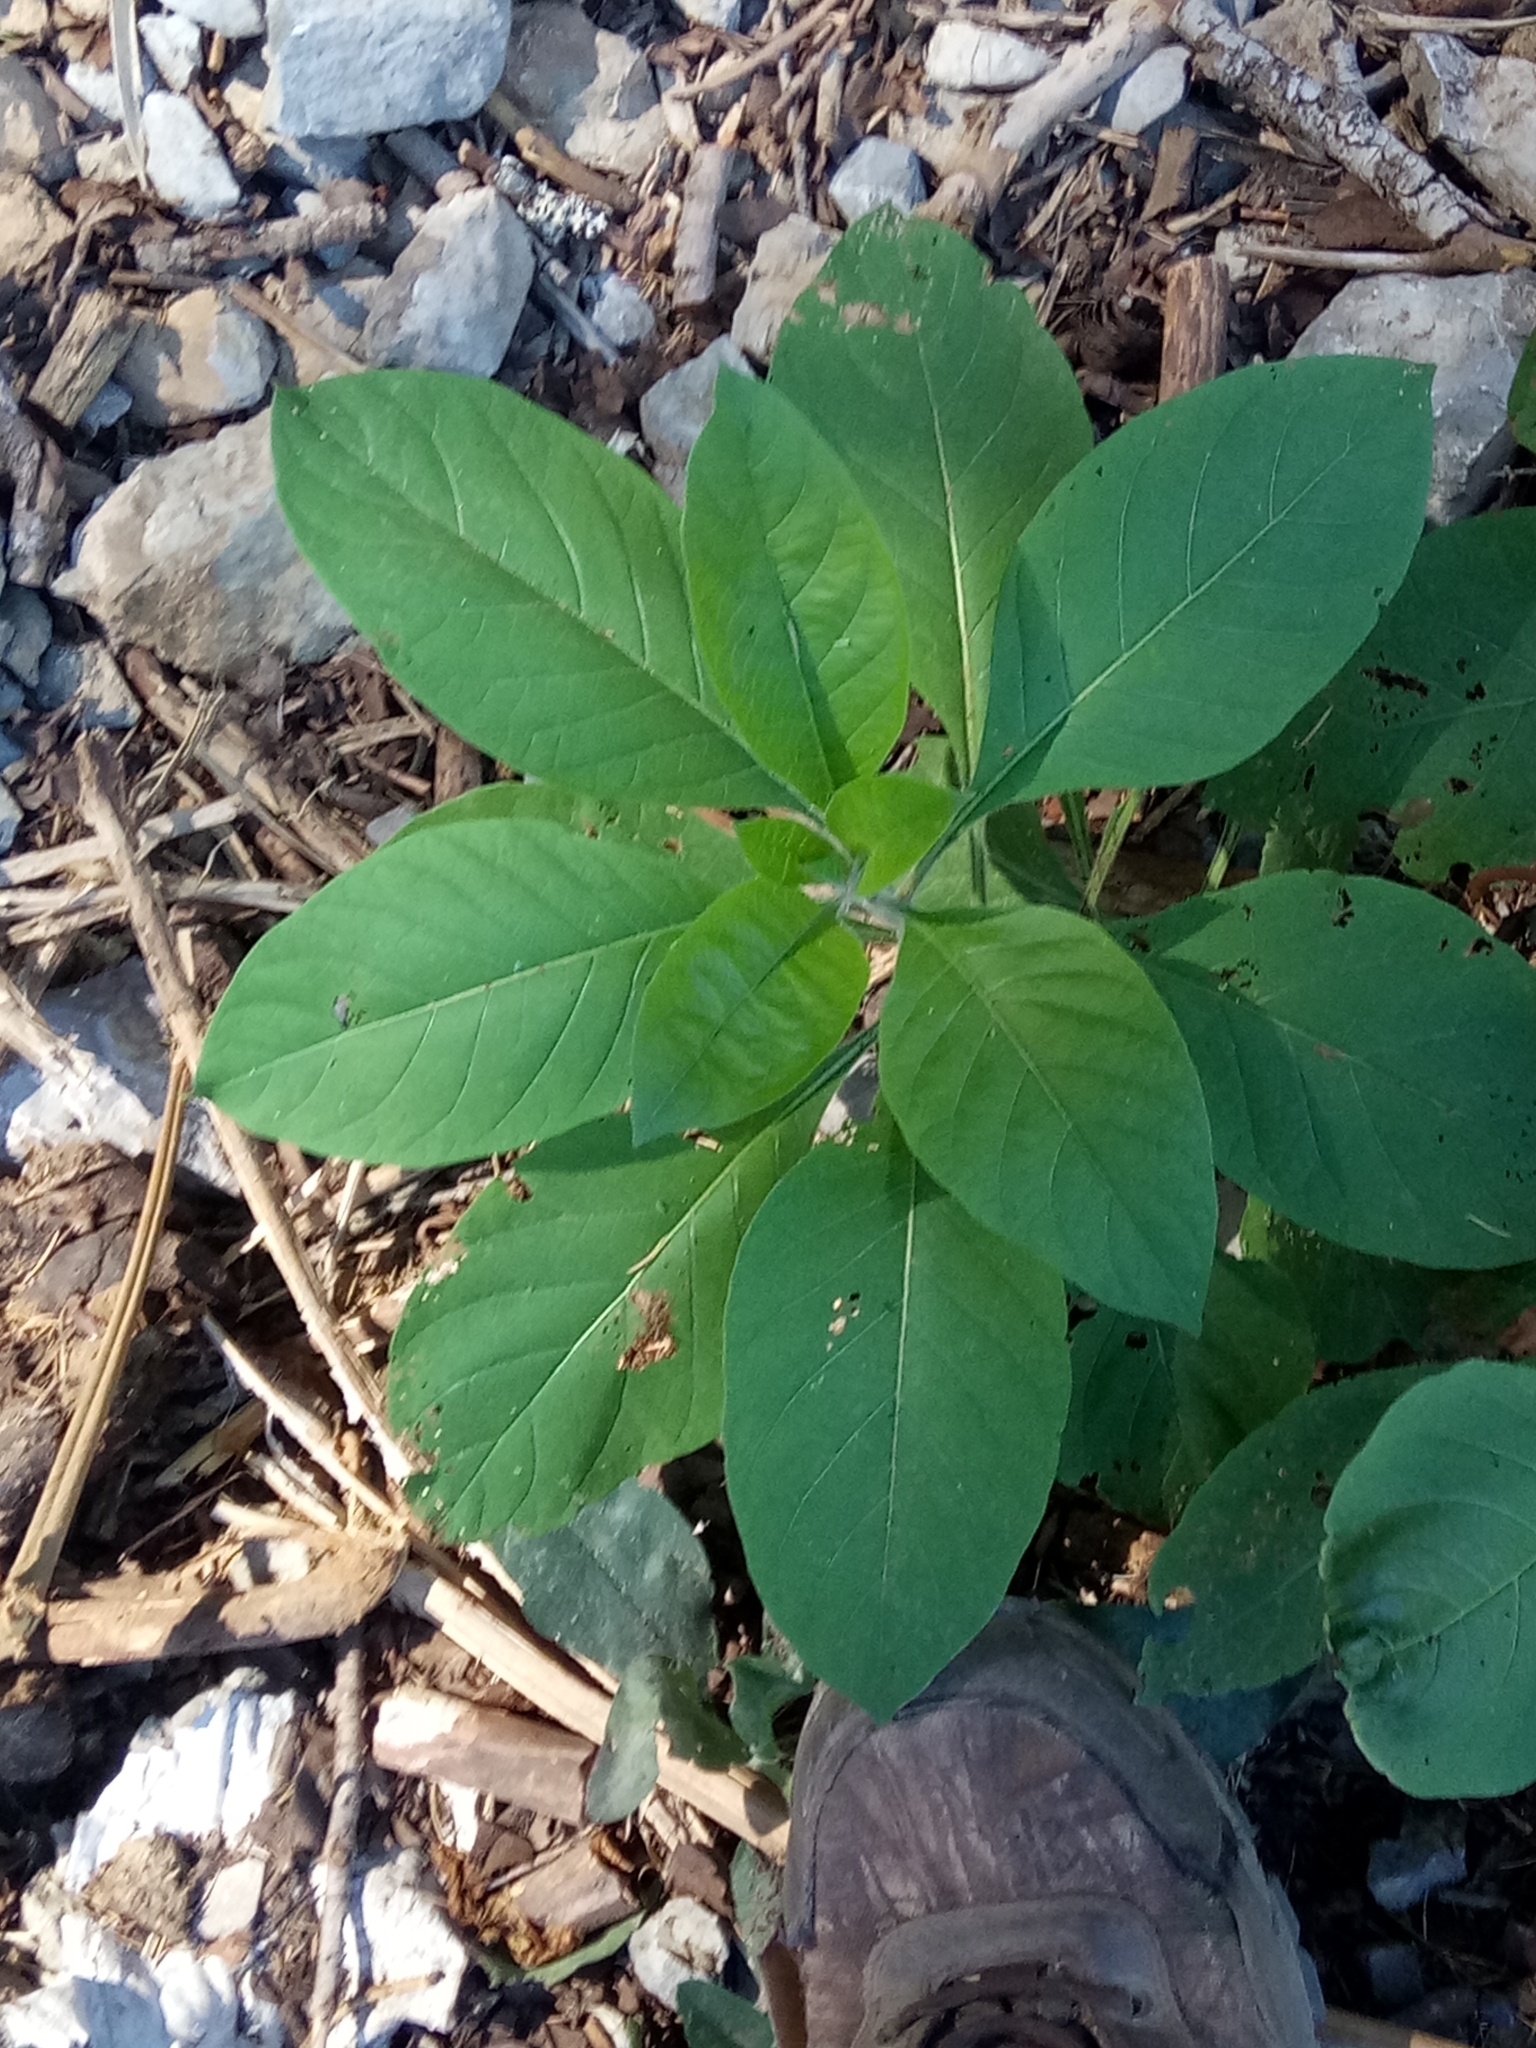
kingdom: Plantae
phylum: Tracheophyta
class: Magnoliopsida
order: Solanales
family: Solanaceae
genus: Atropa
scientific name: Atropa belladonna
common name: Deadly nightshade
